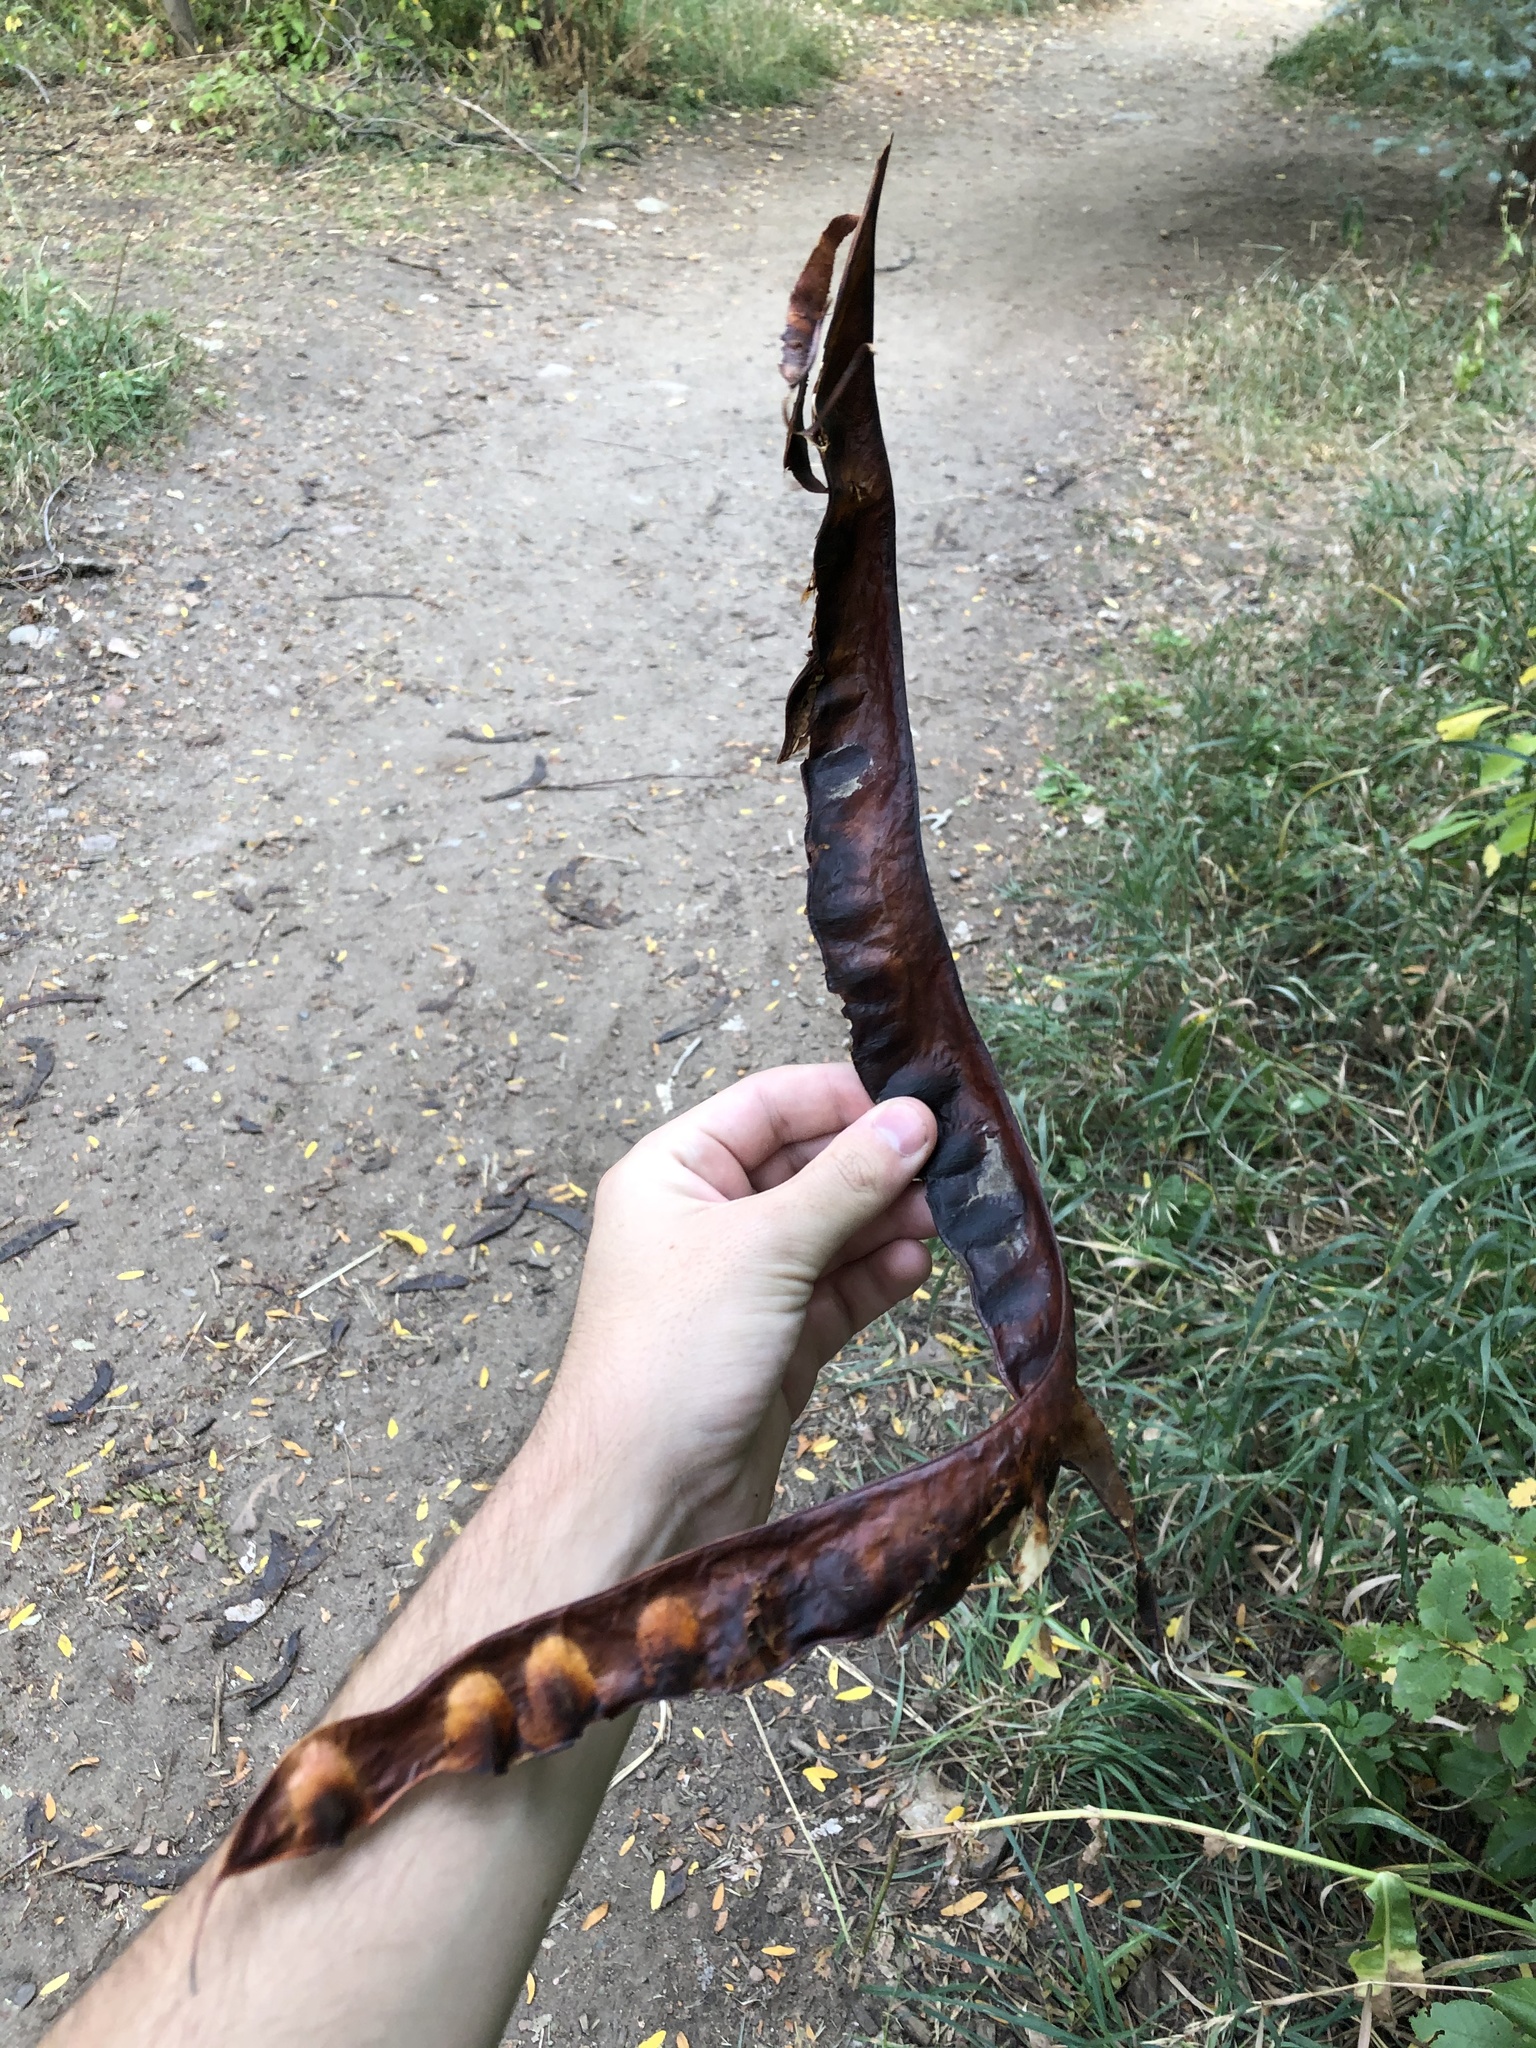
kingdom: Plantae
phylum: Tracheophyta
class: Magnoliopsida
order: Fabales
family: Fabaceae
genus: Gleditsia
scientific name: Gleditsia triacanthos
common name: Common honeylocust
